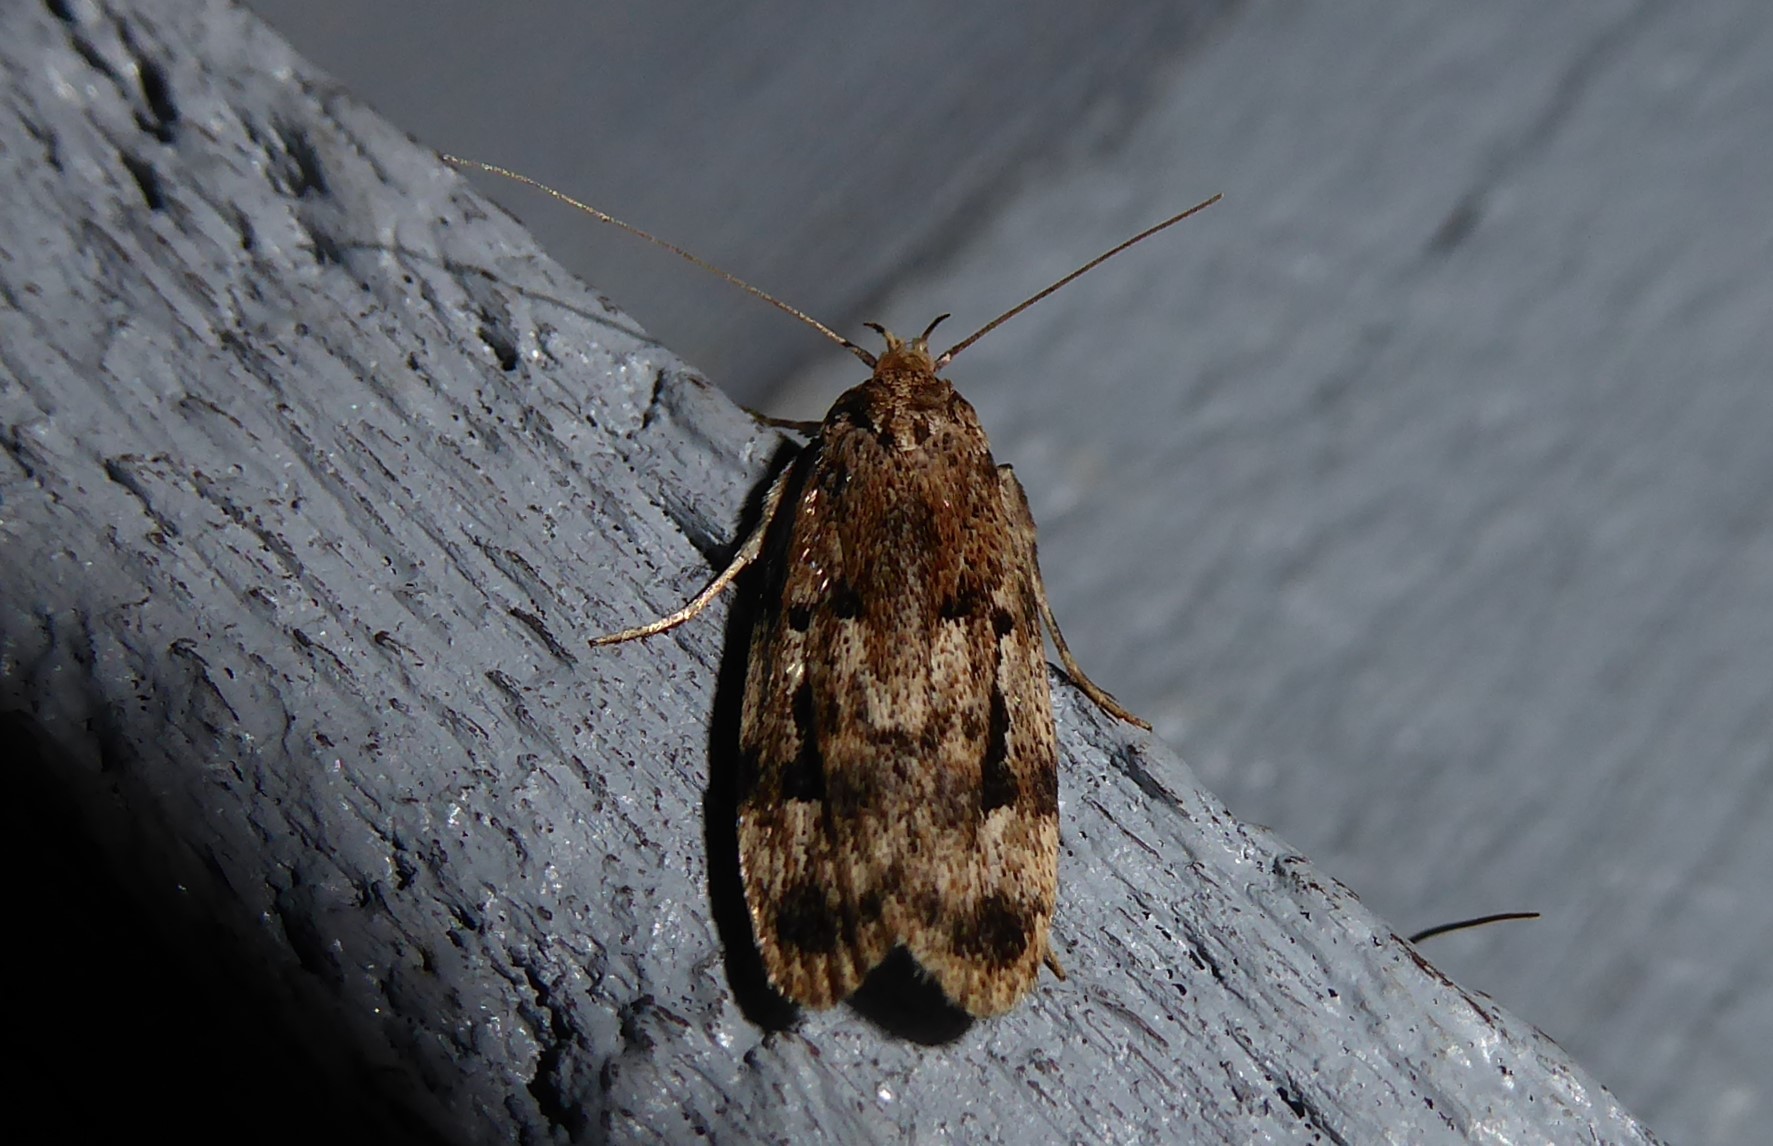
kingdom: Animalia
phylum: Arthropoda
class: Insecta
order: Lepidoptera
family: Oecophoridae
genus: Barea
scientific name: Barea exarcha
